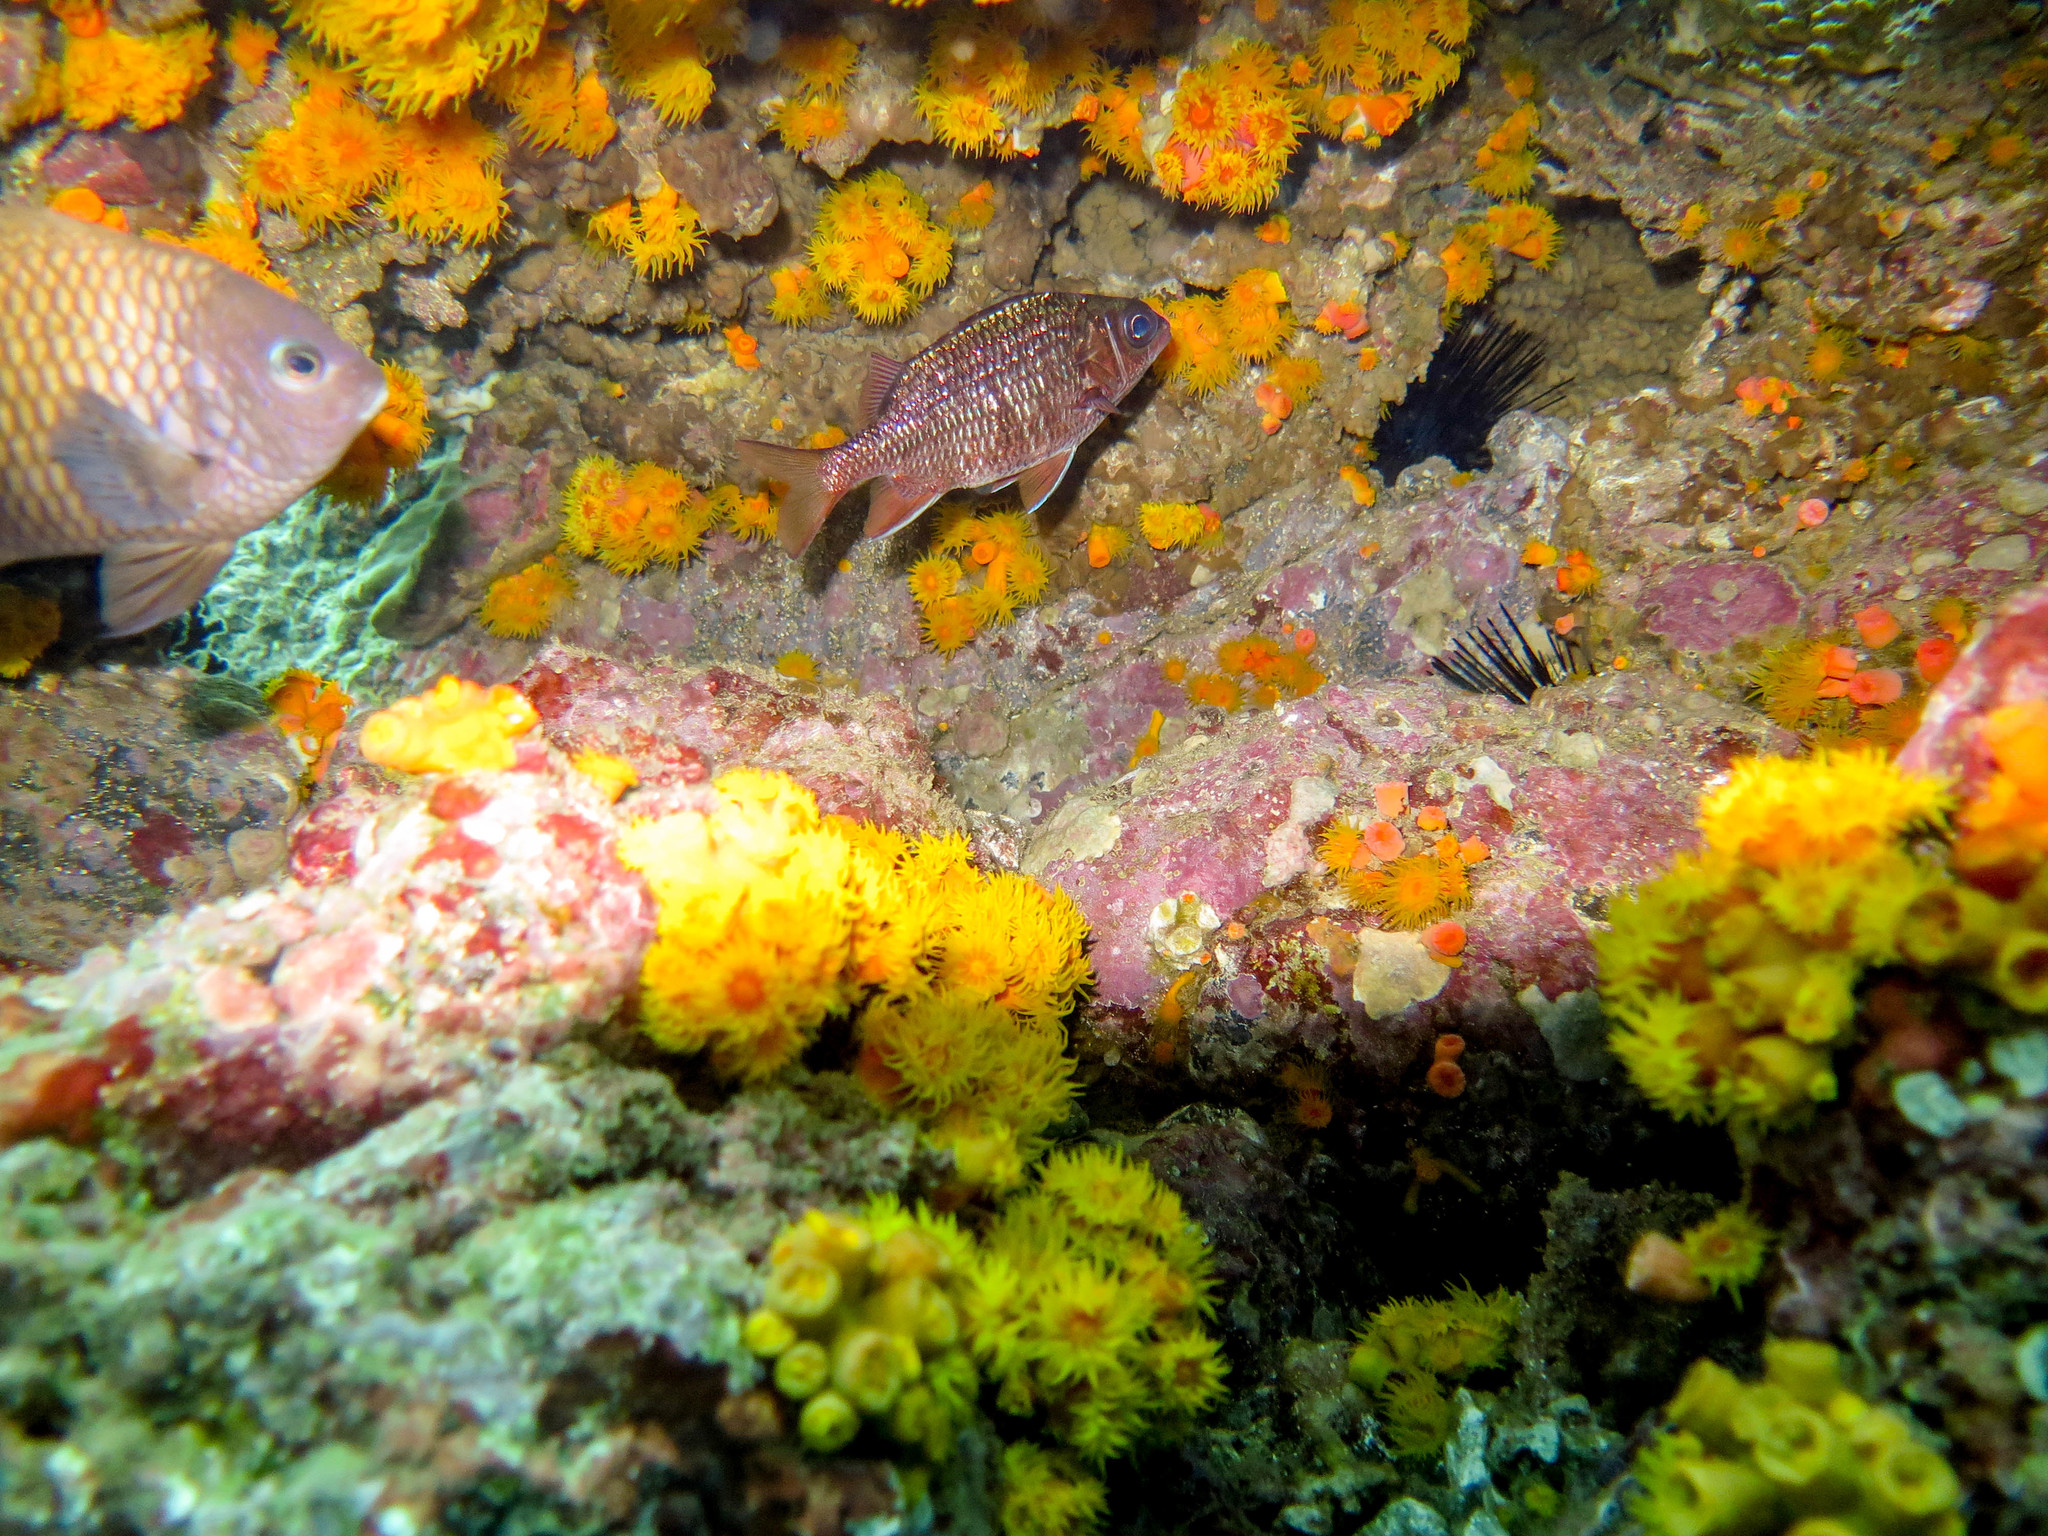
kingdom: Animalia
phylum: Chordata
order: Beryciformes
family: Holocentridae
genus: Sargocentron
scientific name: Sargocentron suborbitale
